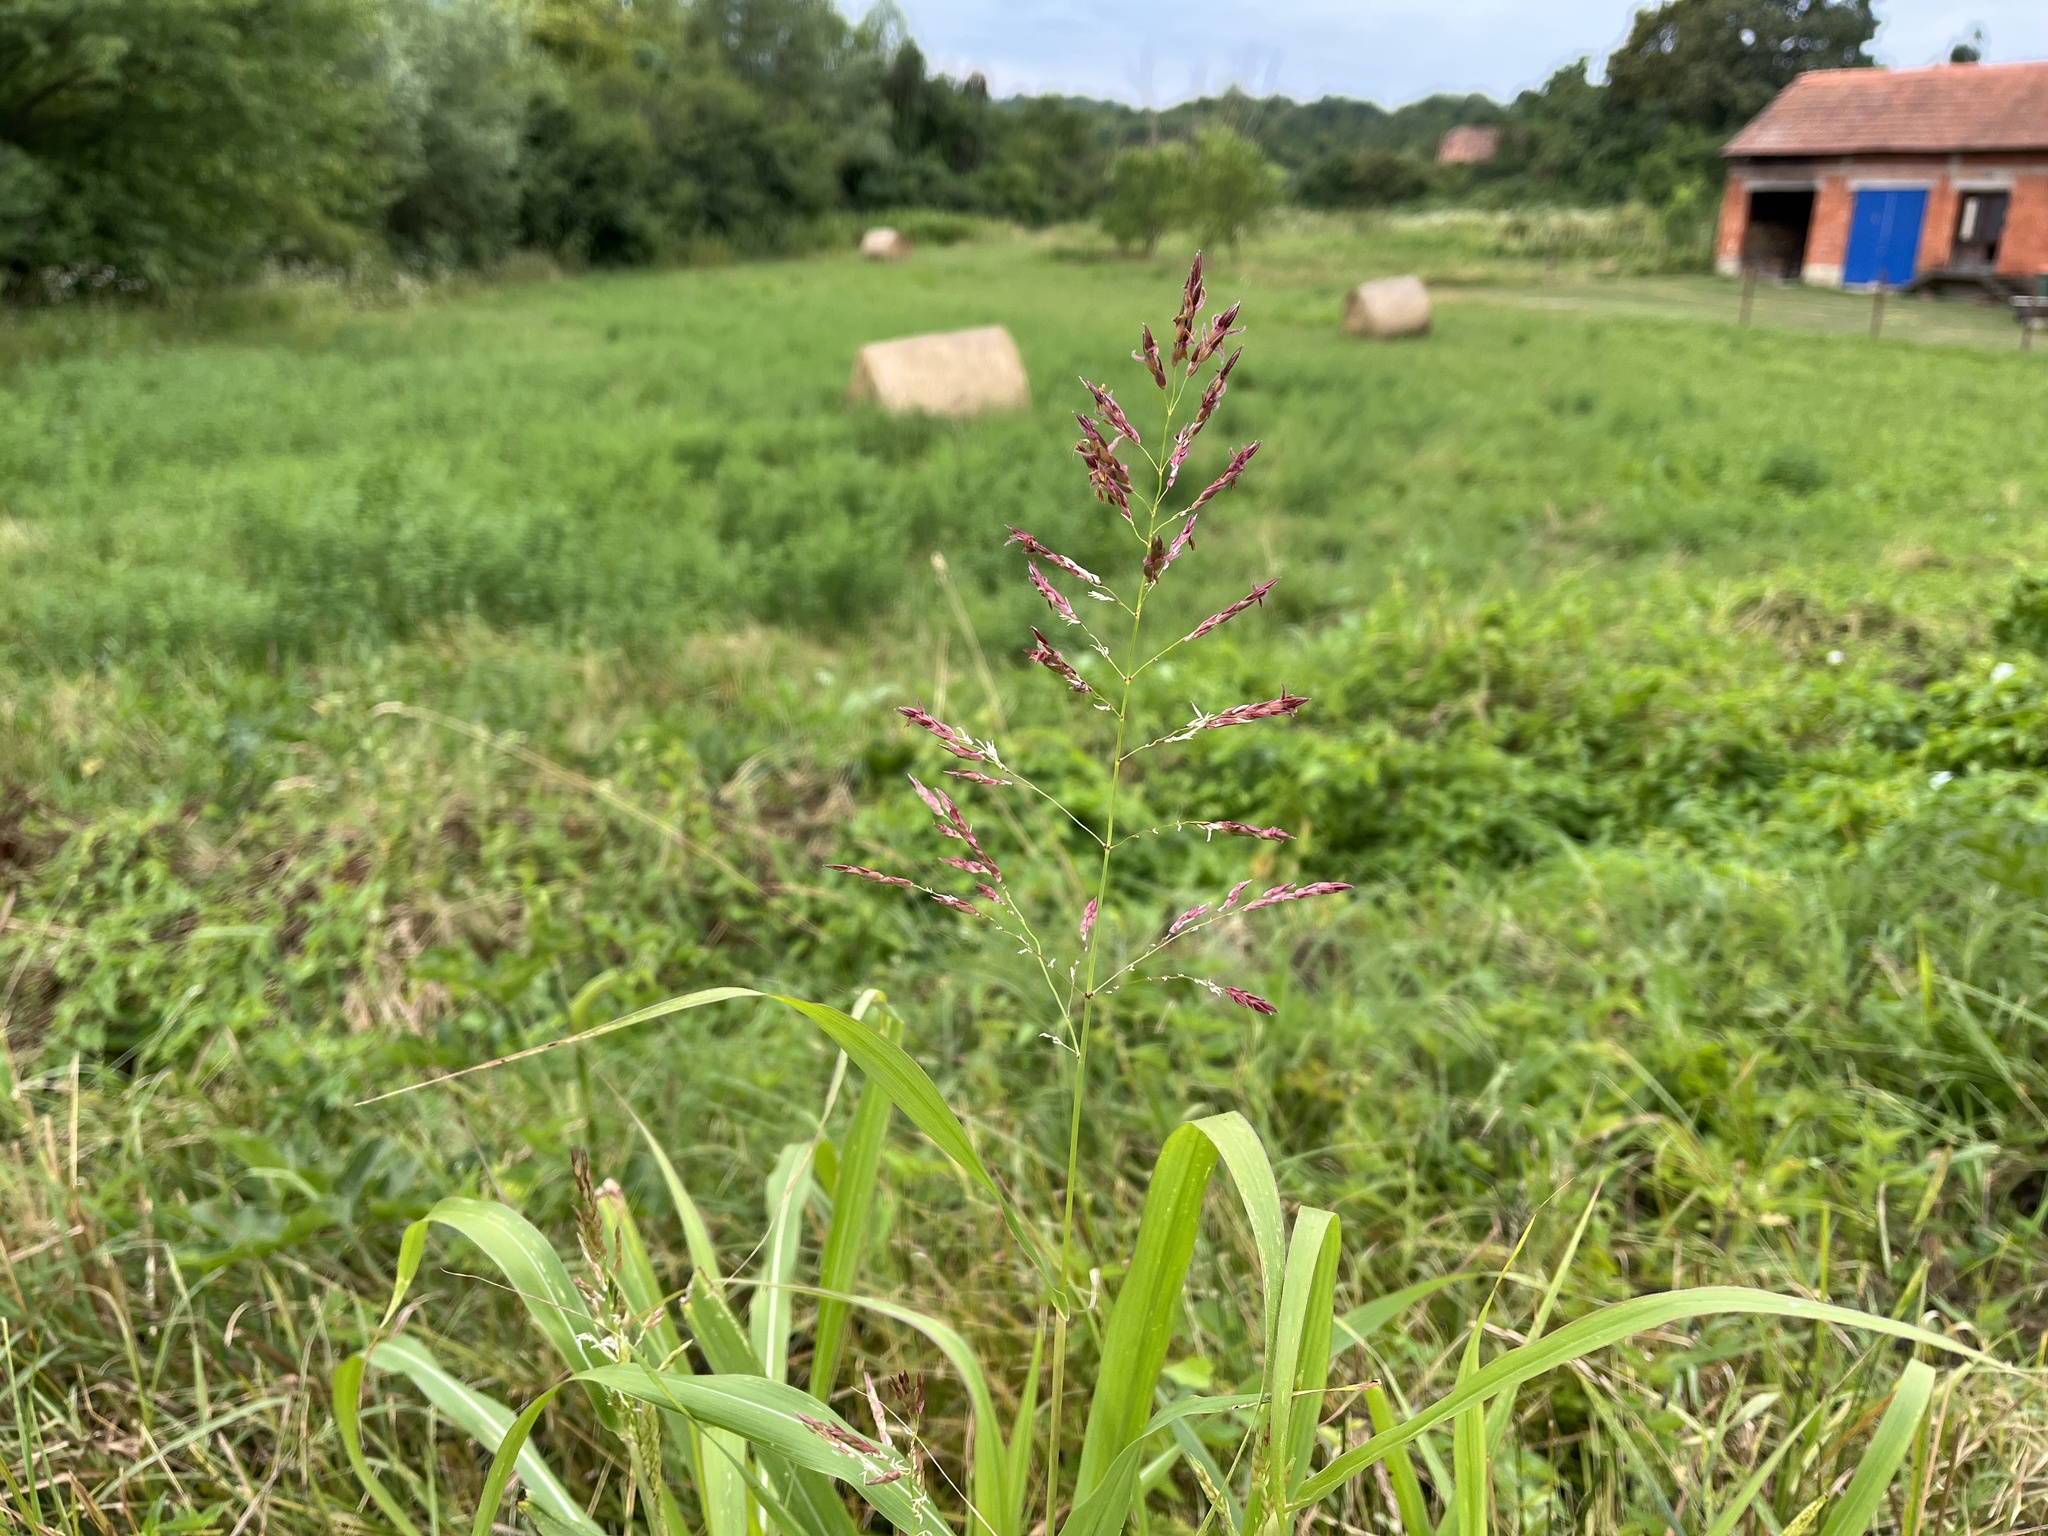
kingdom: Plantae
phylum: Tracheophyta
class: Liliopsida
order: Poales
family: Poaceae
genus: Sorghum
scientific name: Sorghum halepense
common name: Johnson-grass
